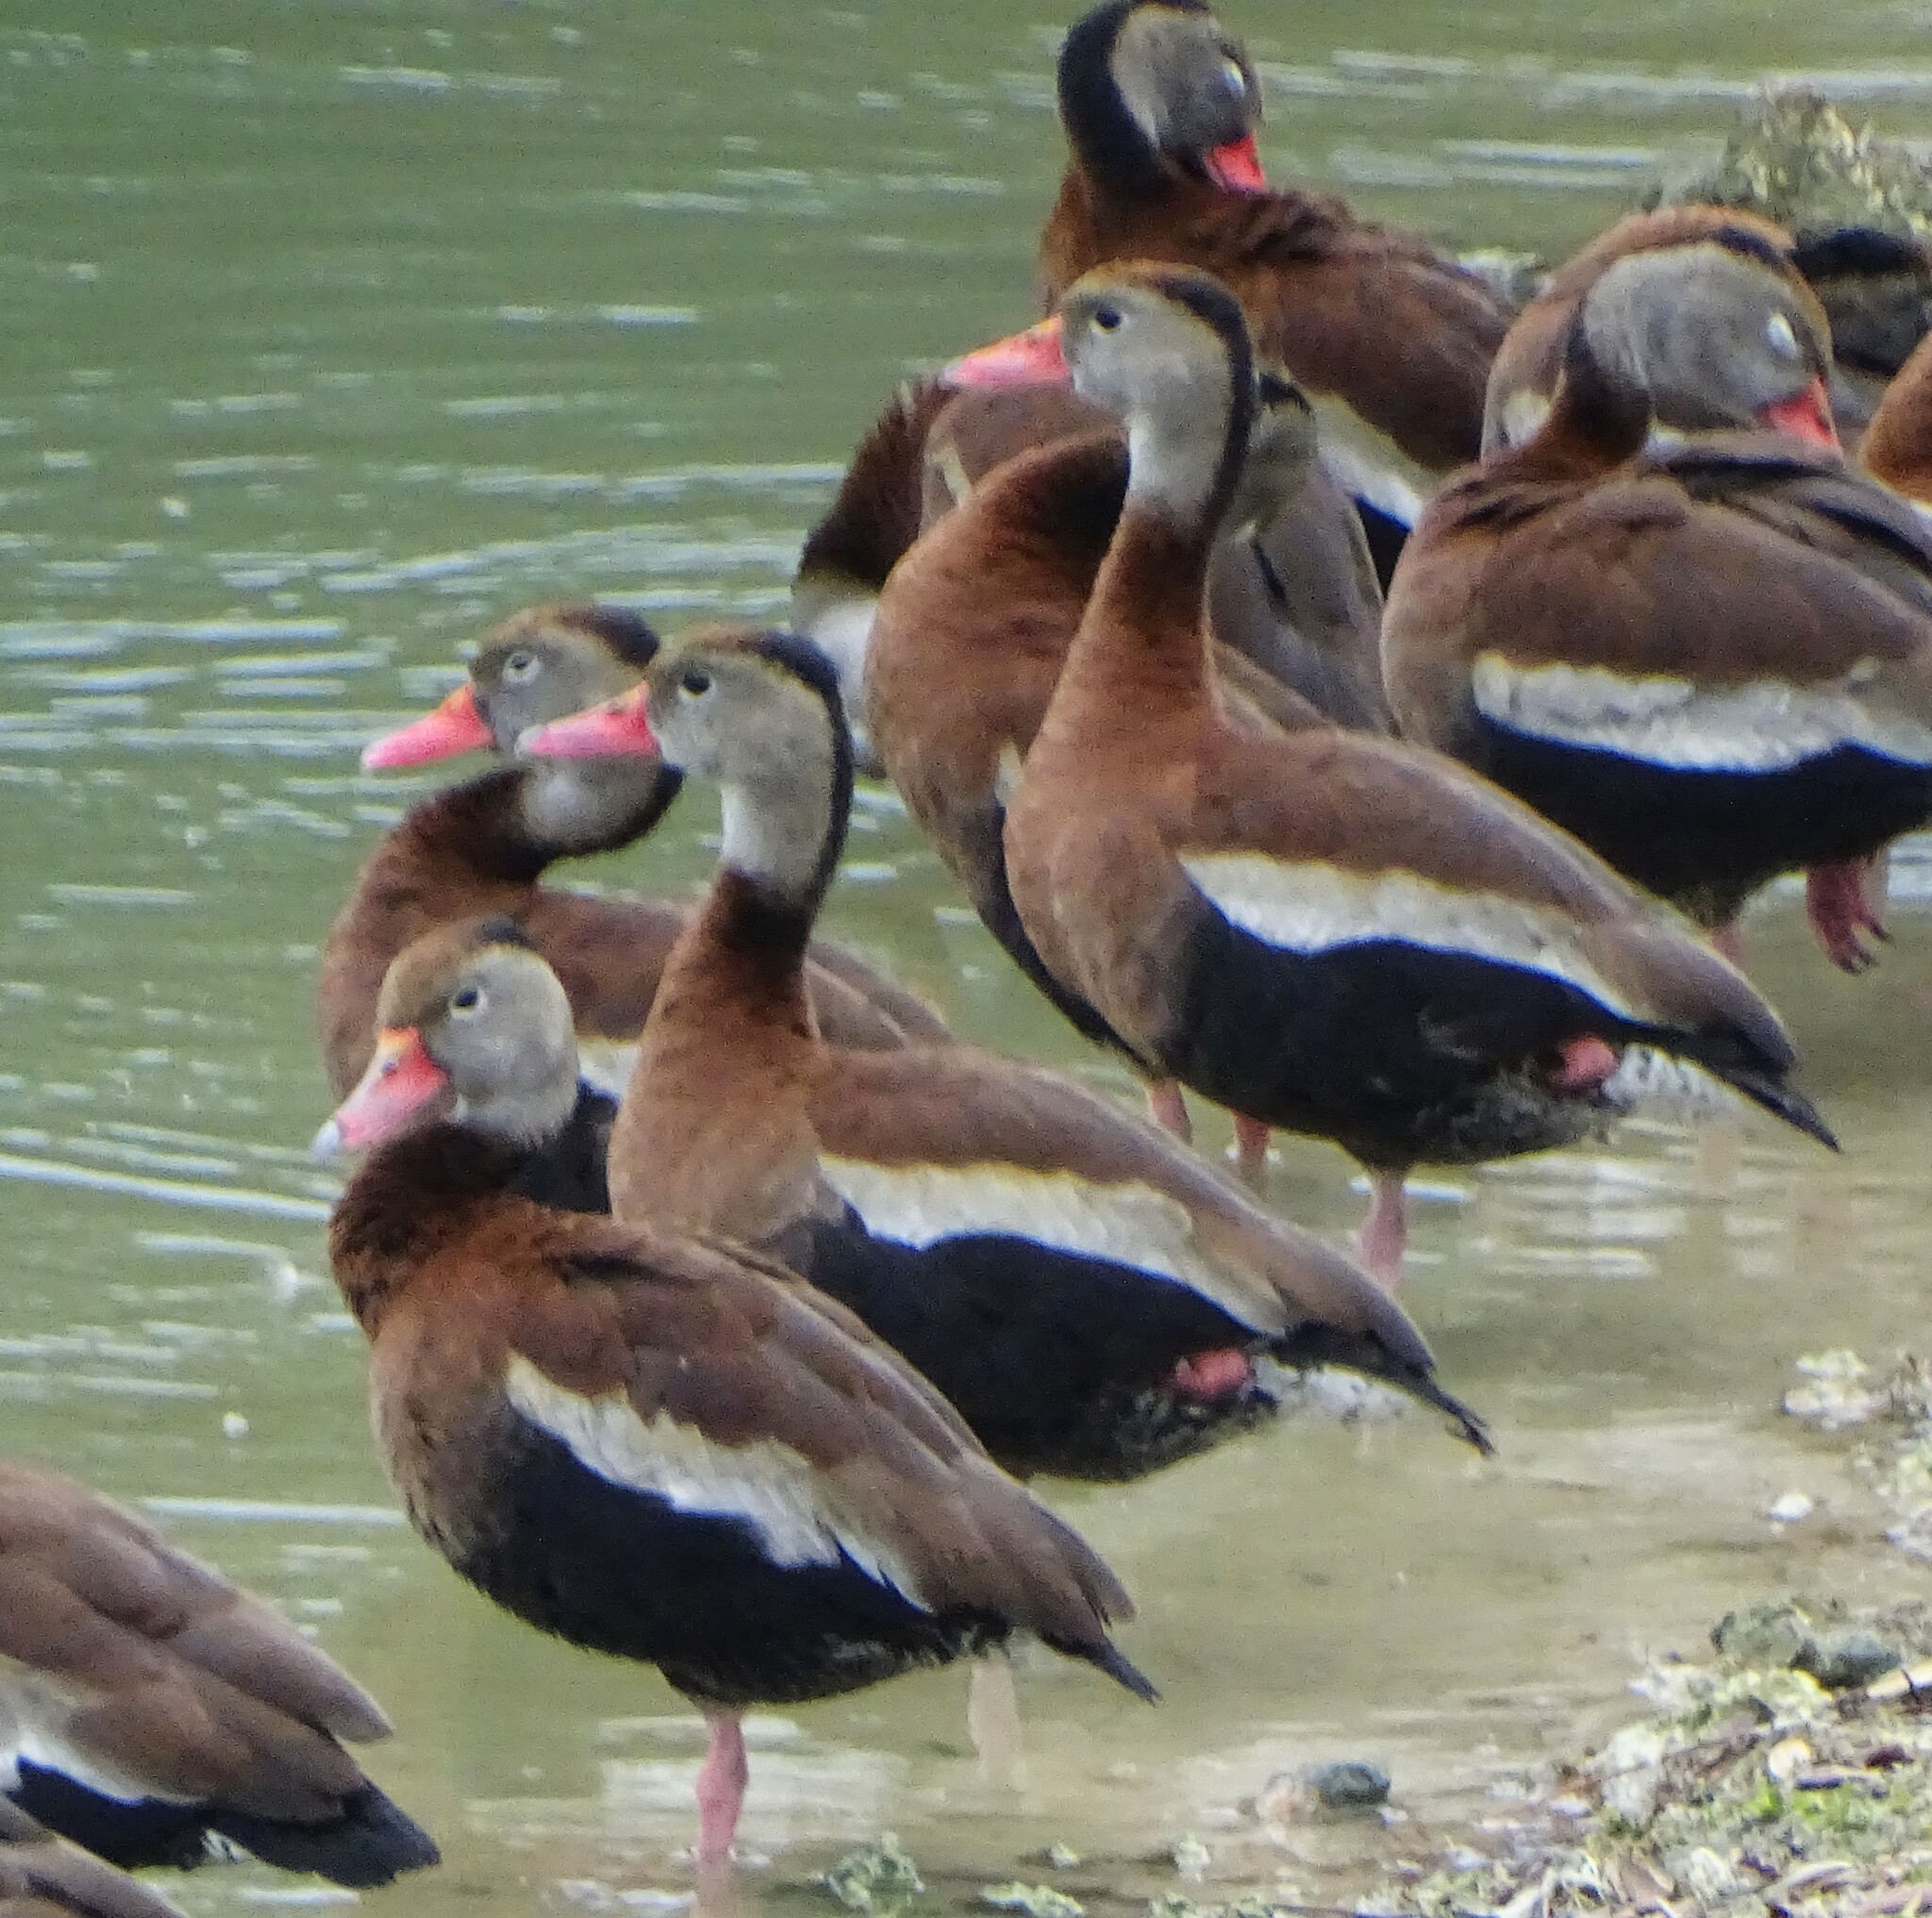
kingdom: Animalia
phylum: Chordata
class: Aves
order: Anseriformes
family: Anatidae
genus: Dendrocygna
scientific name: Dendrocygna autumnalis
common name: Black-bellied whistling duck
